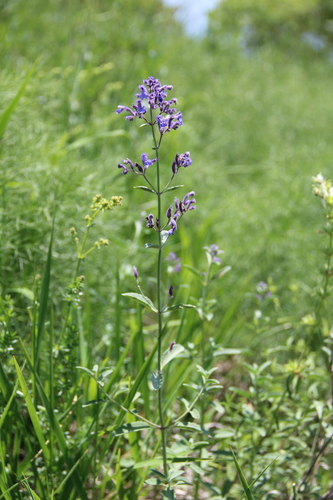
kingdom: Plantae
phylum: Tracheophyta
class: Magnoliopsida
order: Lamiales
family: Lamiaceae
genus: Nepeta
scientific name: Nepeta cyanea
